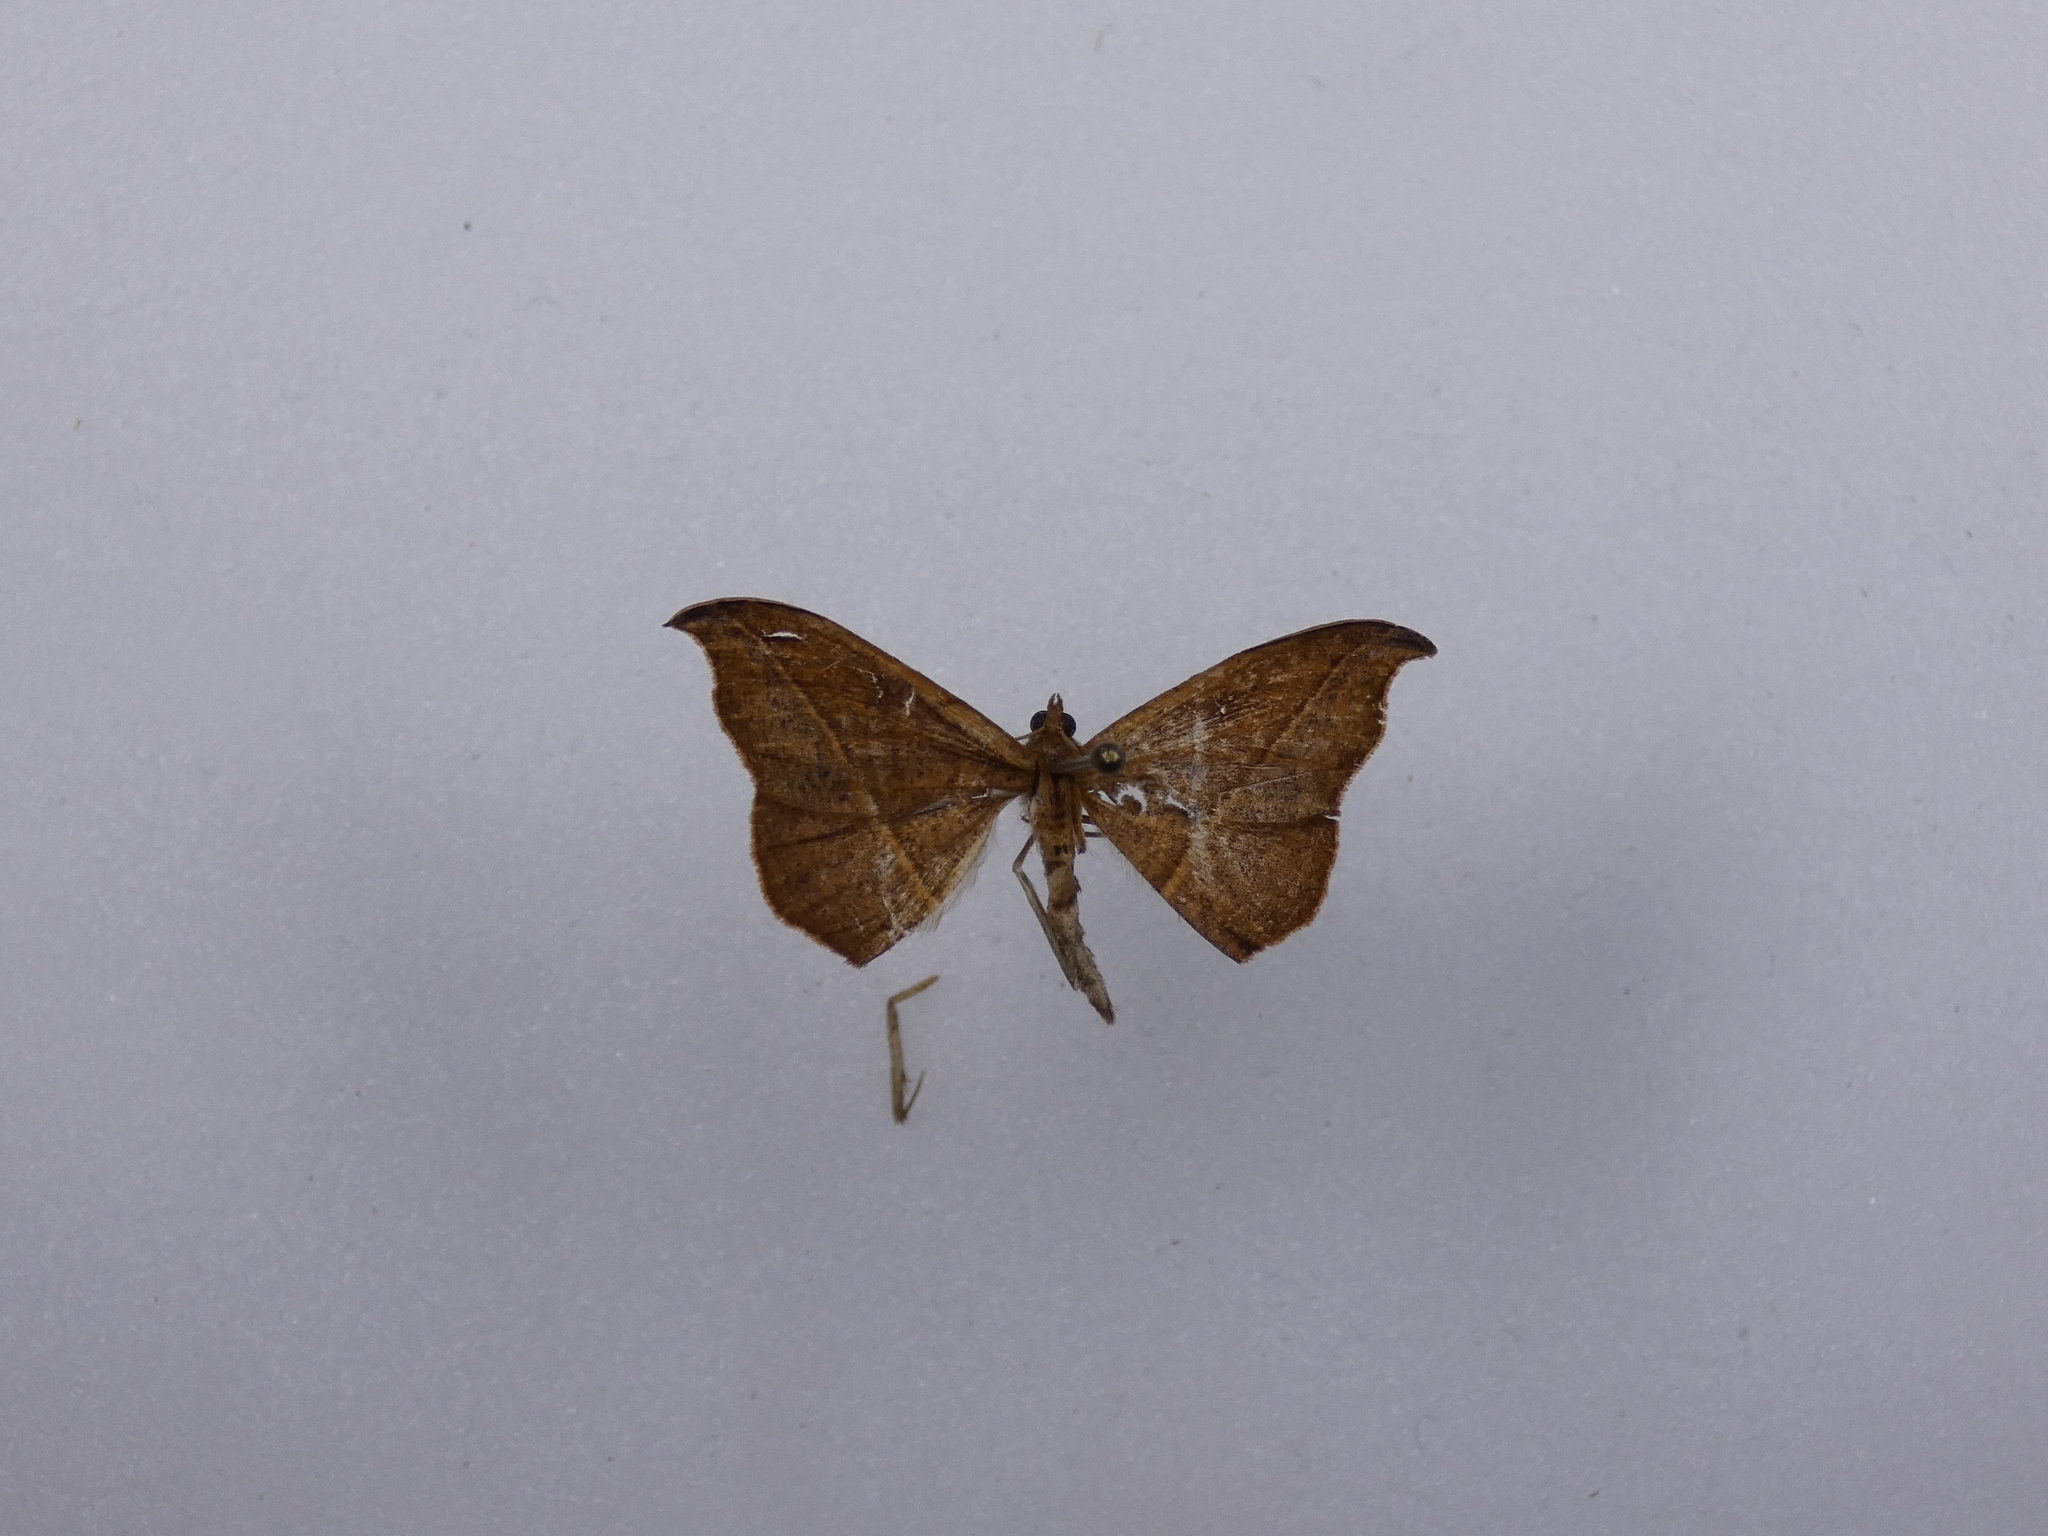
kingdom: Animalia
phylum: Arthropoda
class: Insecta
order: Lepidoptera
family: Geometridae
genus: Sarisa
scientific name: Sarisa muriferata
